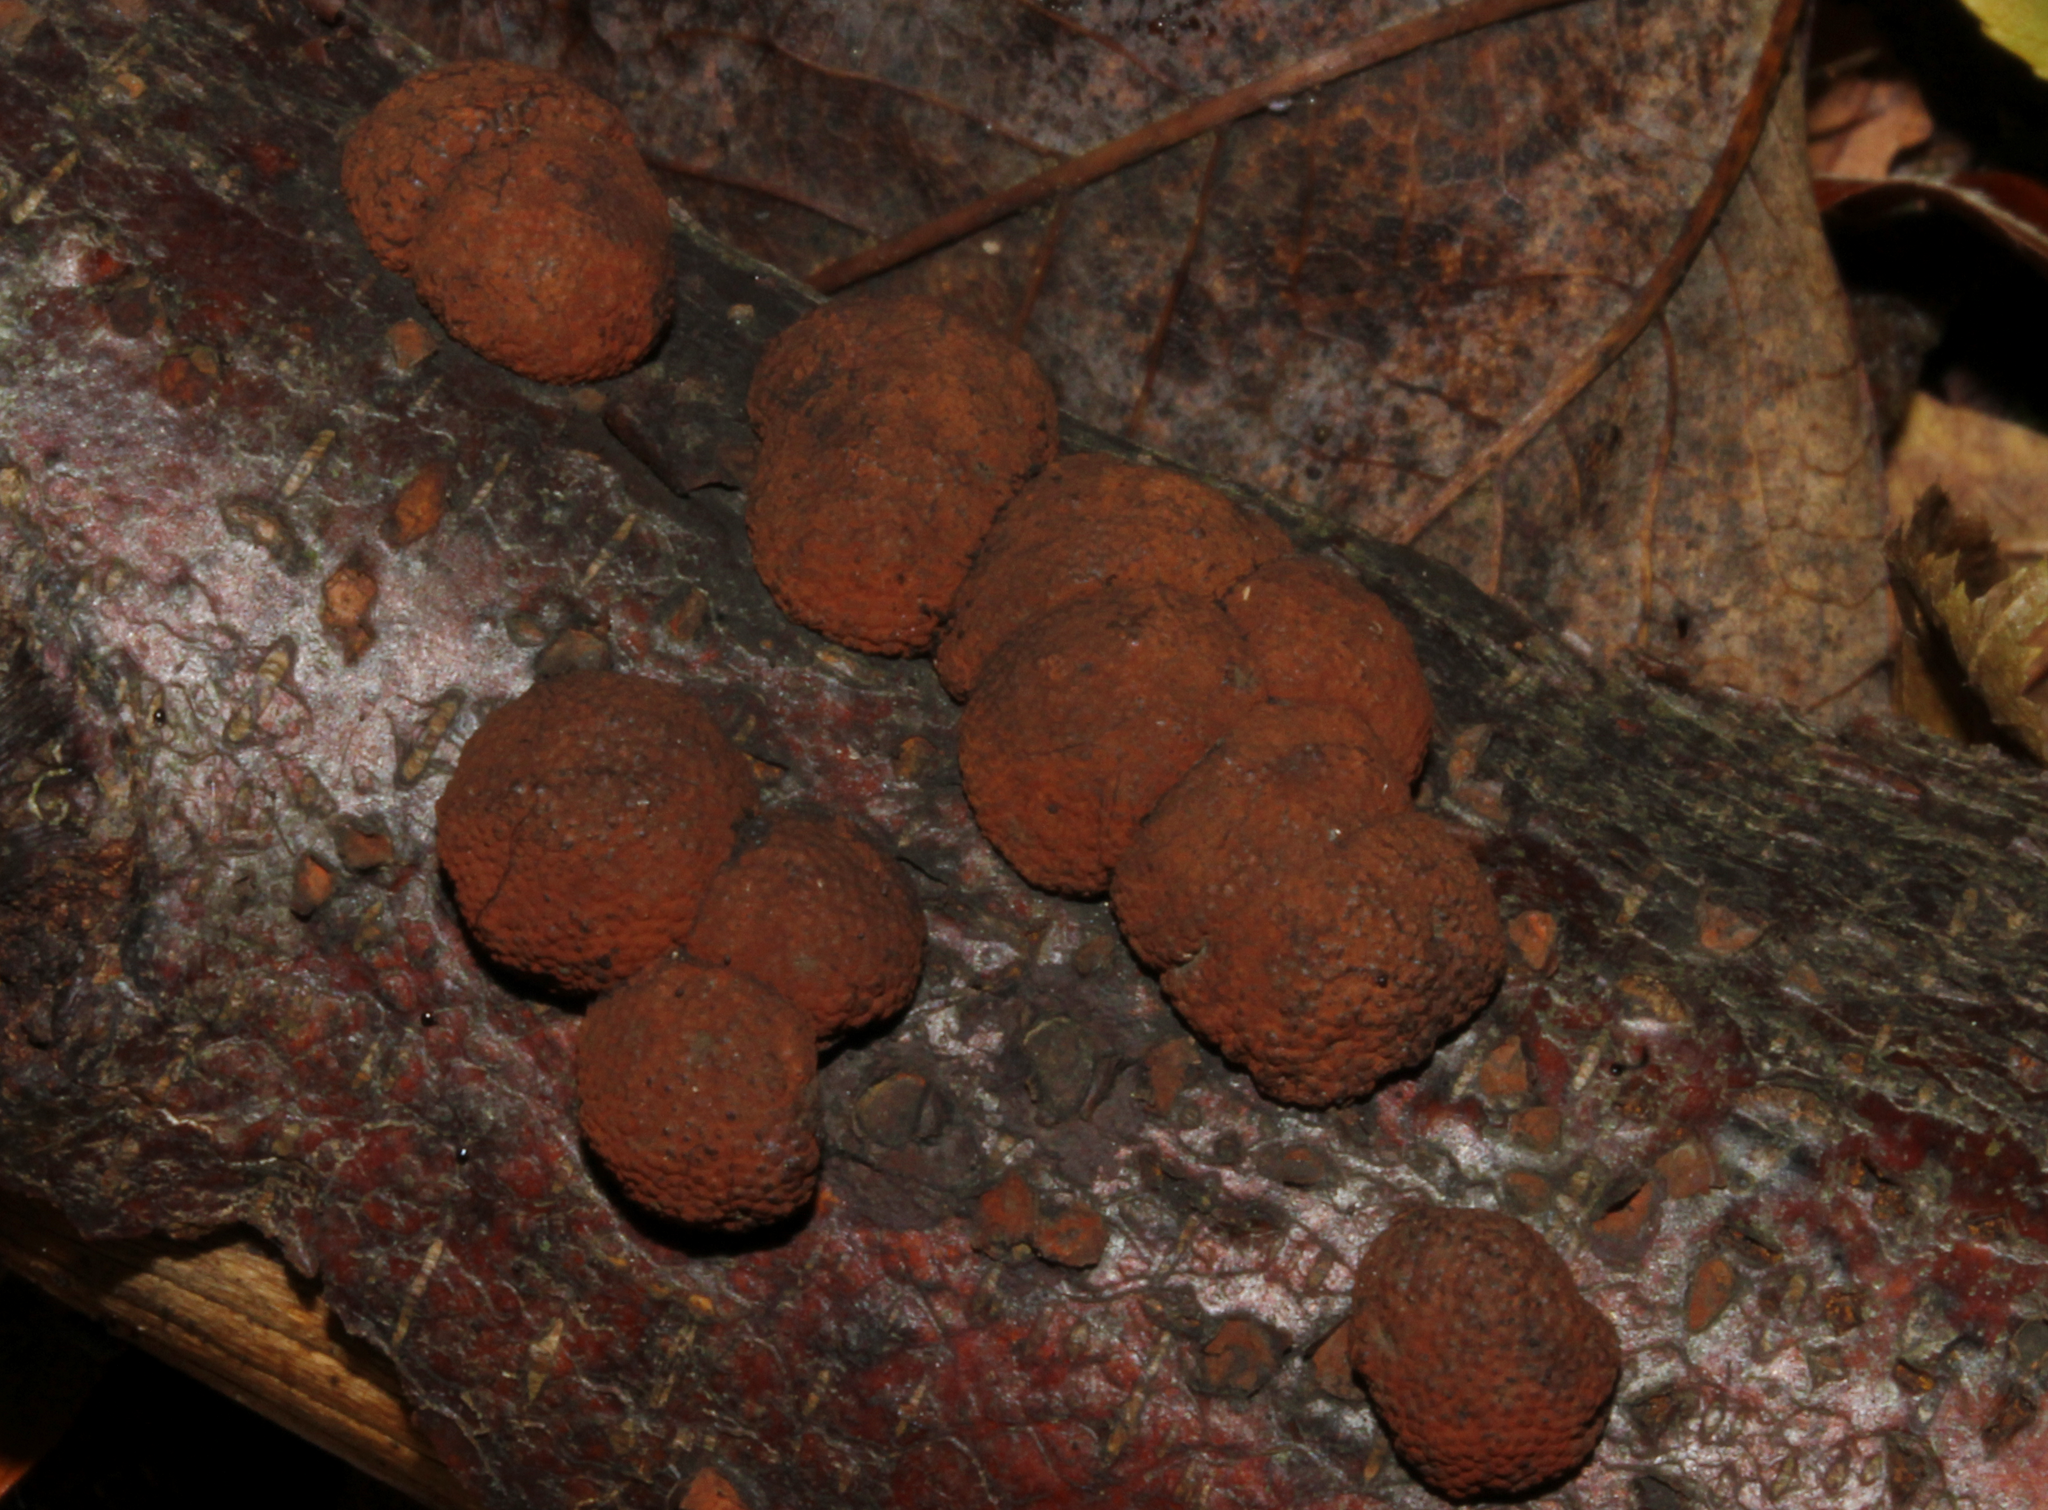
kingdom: Fungi
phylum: Ascomycota
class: Sordariomycetes
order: Xylariales
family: Hypoxylaceae
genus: Hypoxylon
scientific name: Hypoxylon fragiforme
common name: Beech woodwart
